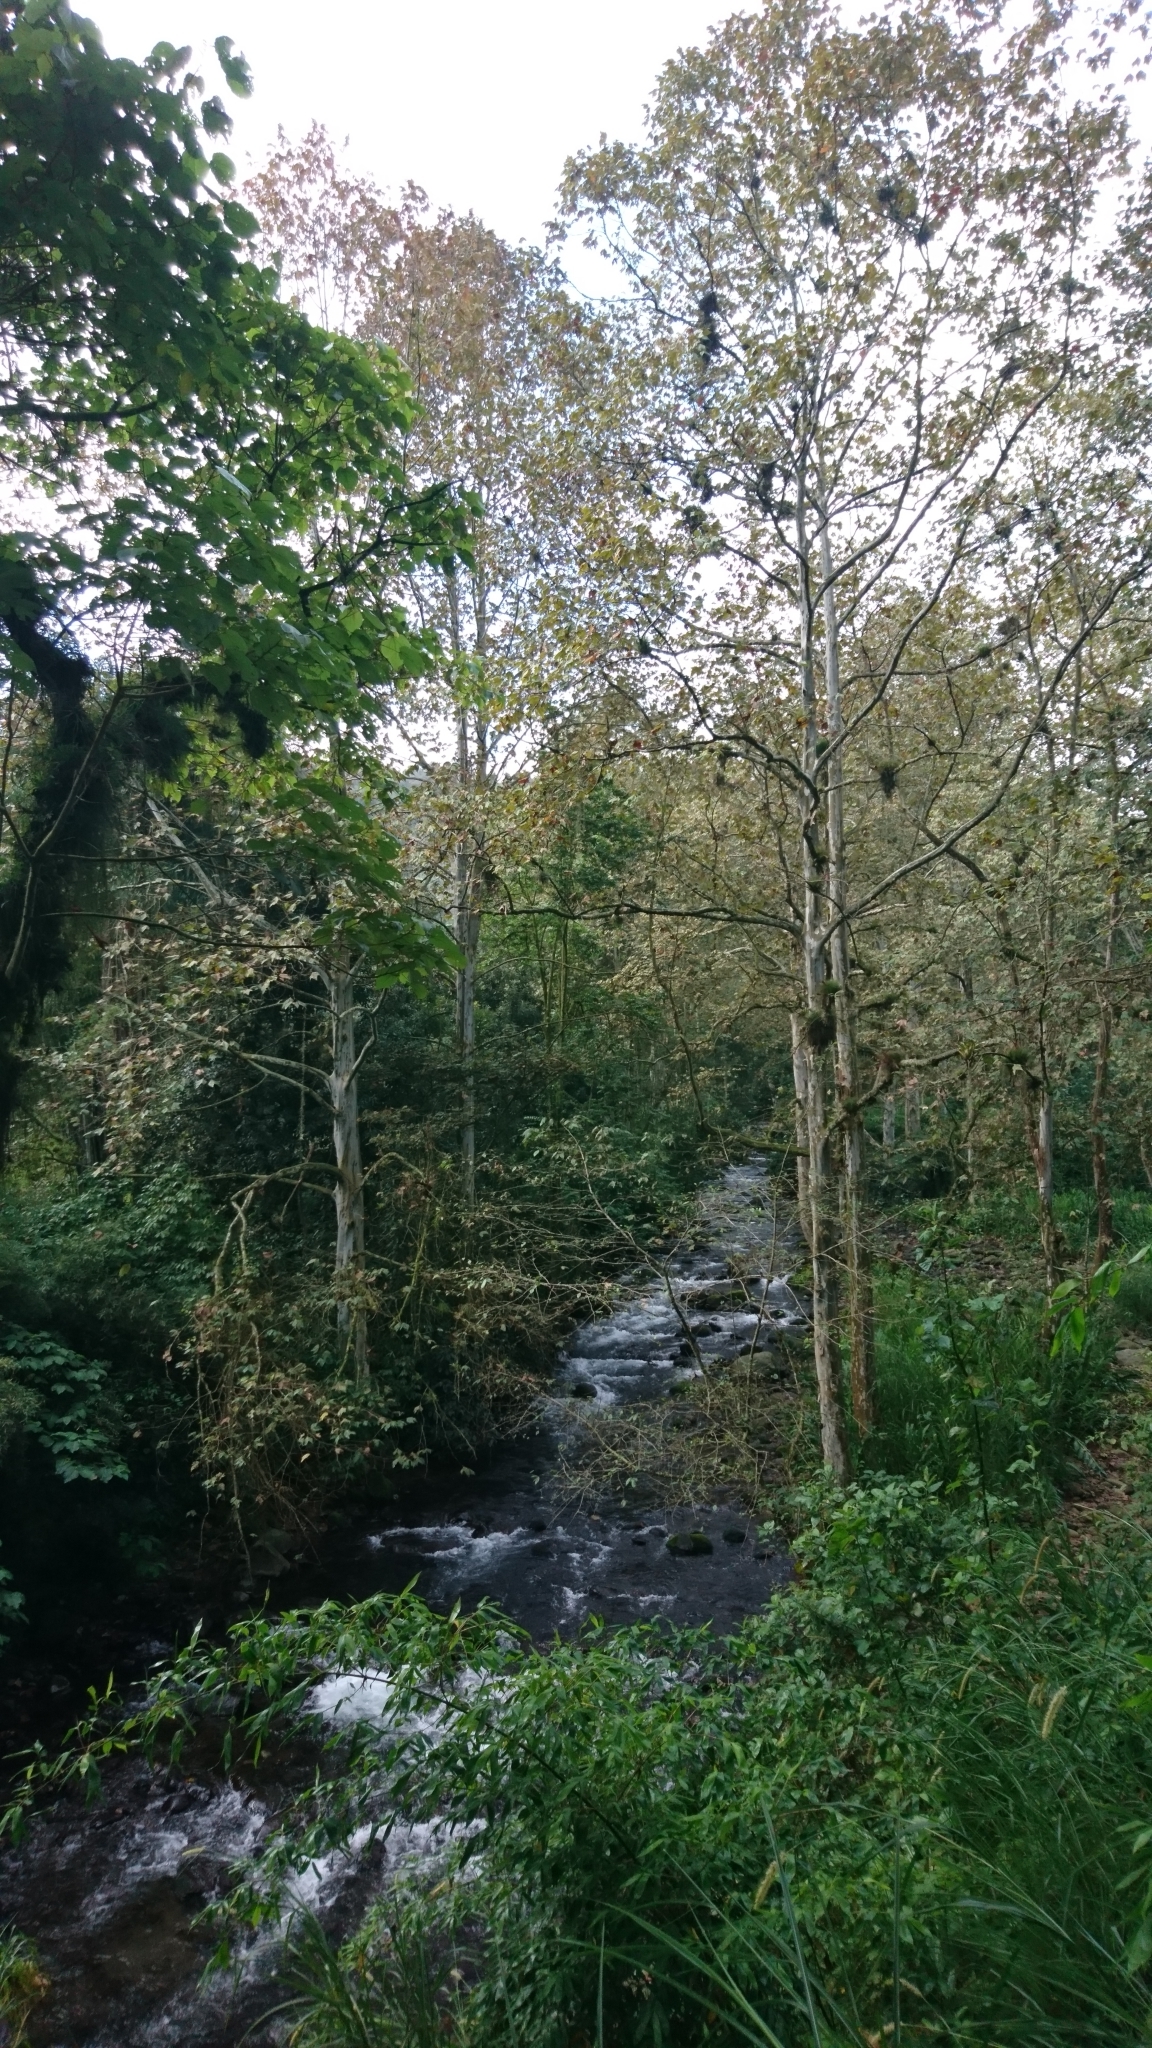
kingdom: Plantae
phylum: Tracheophyta
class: Magnoliopsida
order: Proteales
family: Platanaceae
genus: Platanus
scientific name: Platanus mexicana
